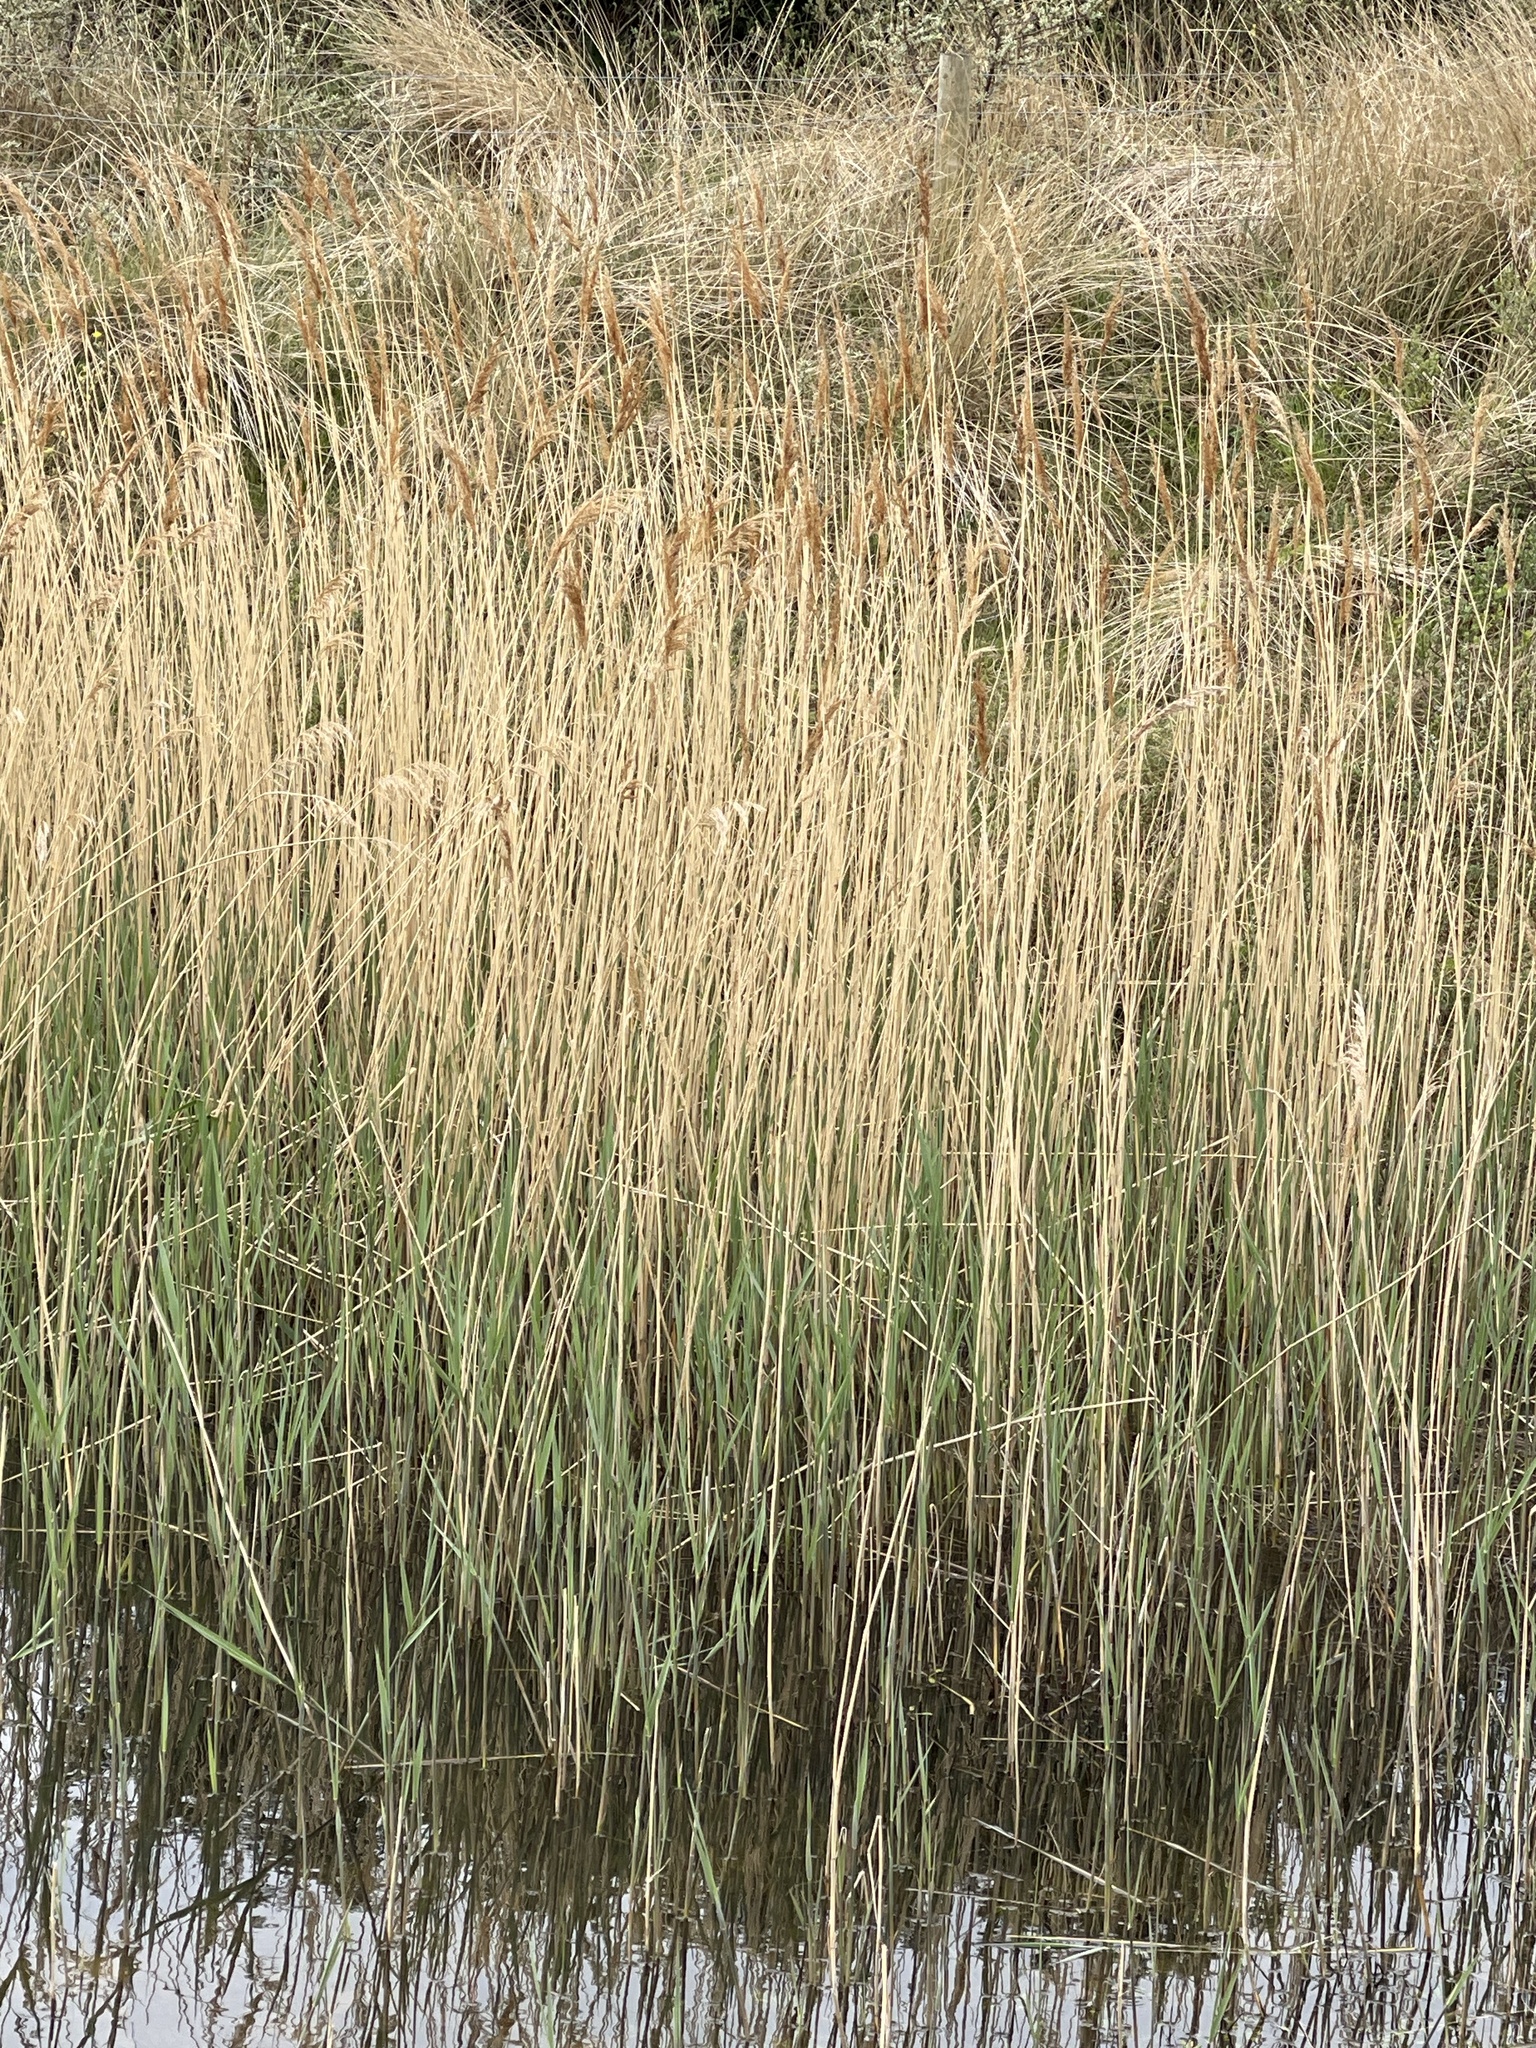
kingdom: Plantae
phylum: Tracheophyta
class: Liliopsida
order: Poales
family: Poaceae
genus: Phragmites
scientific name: Phragmites australis
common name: Common reed
